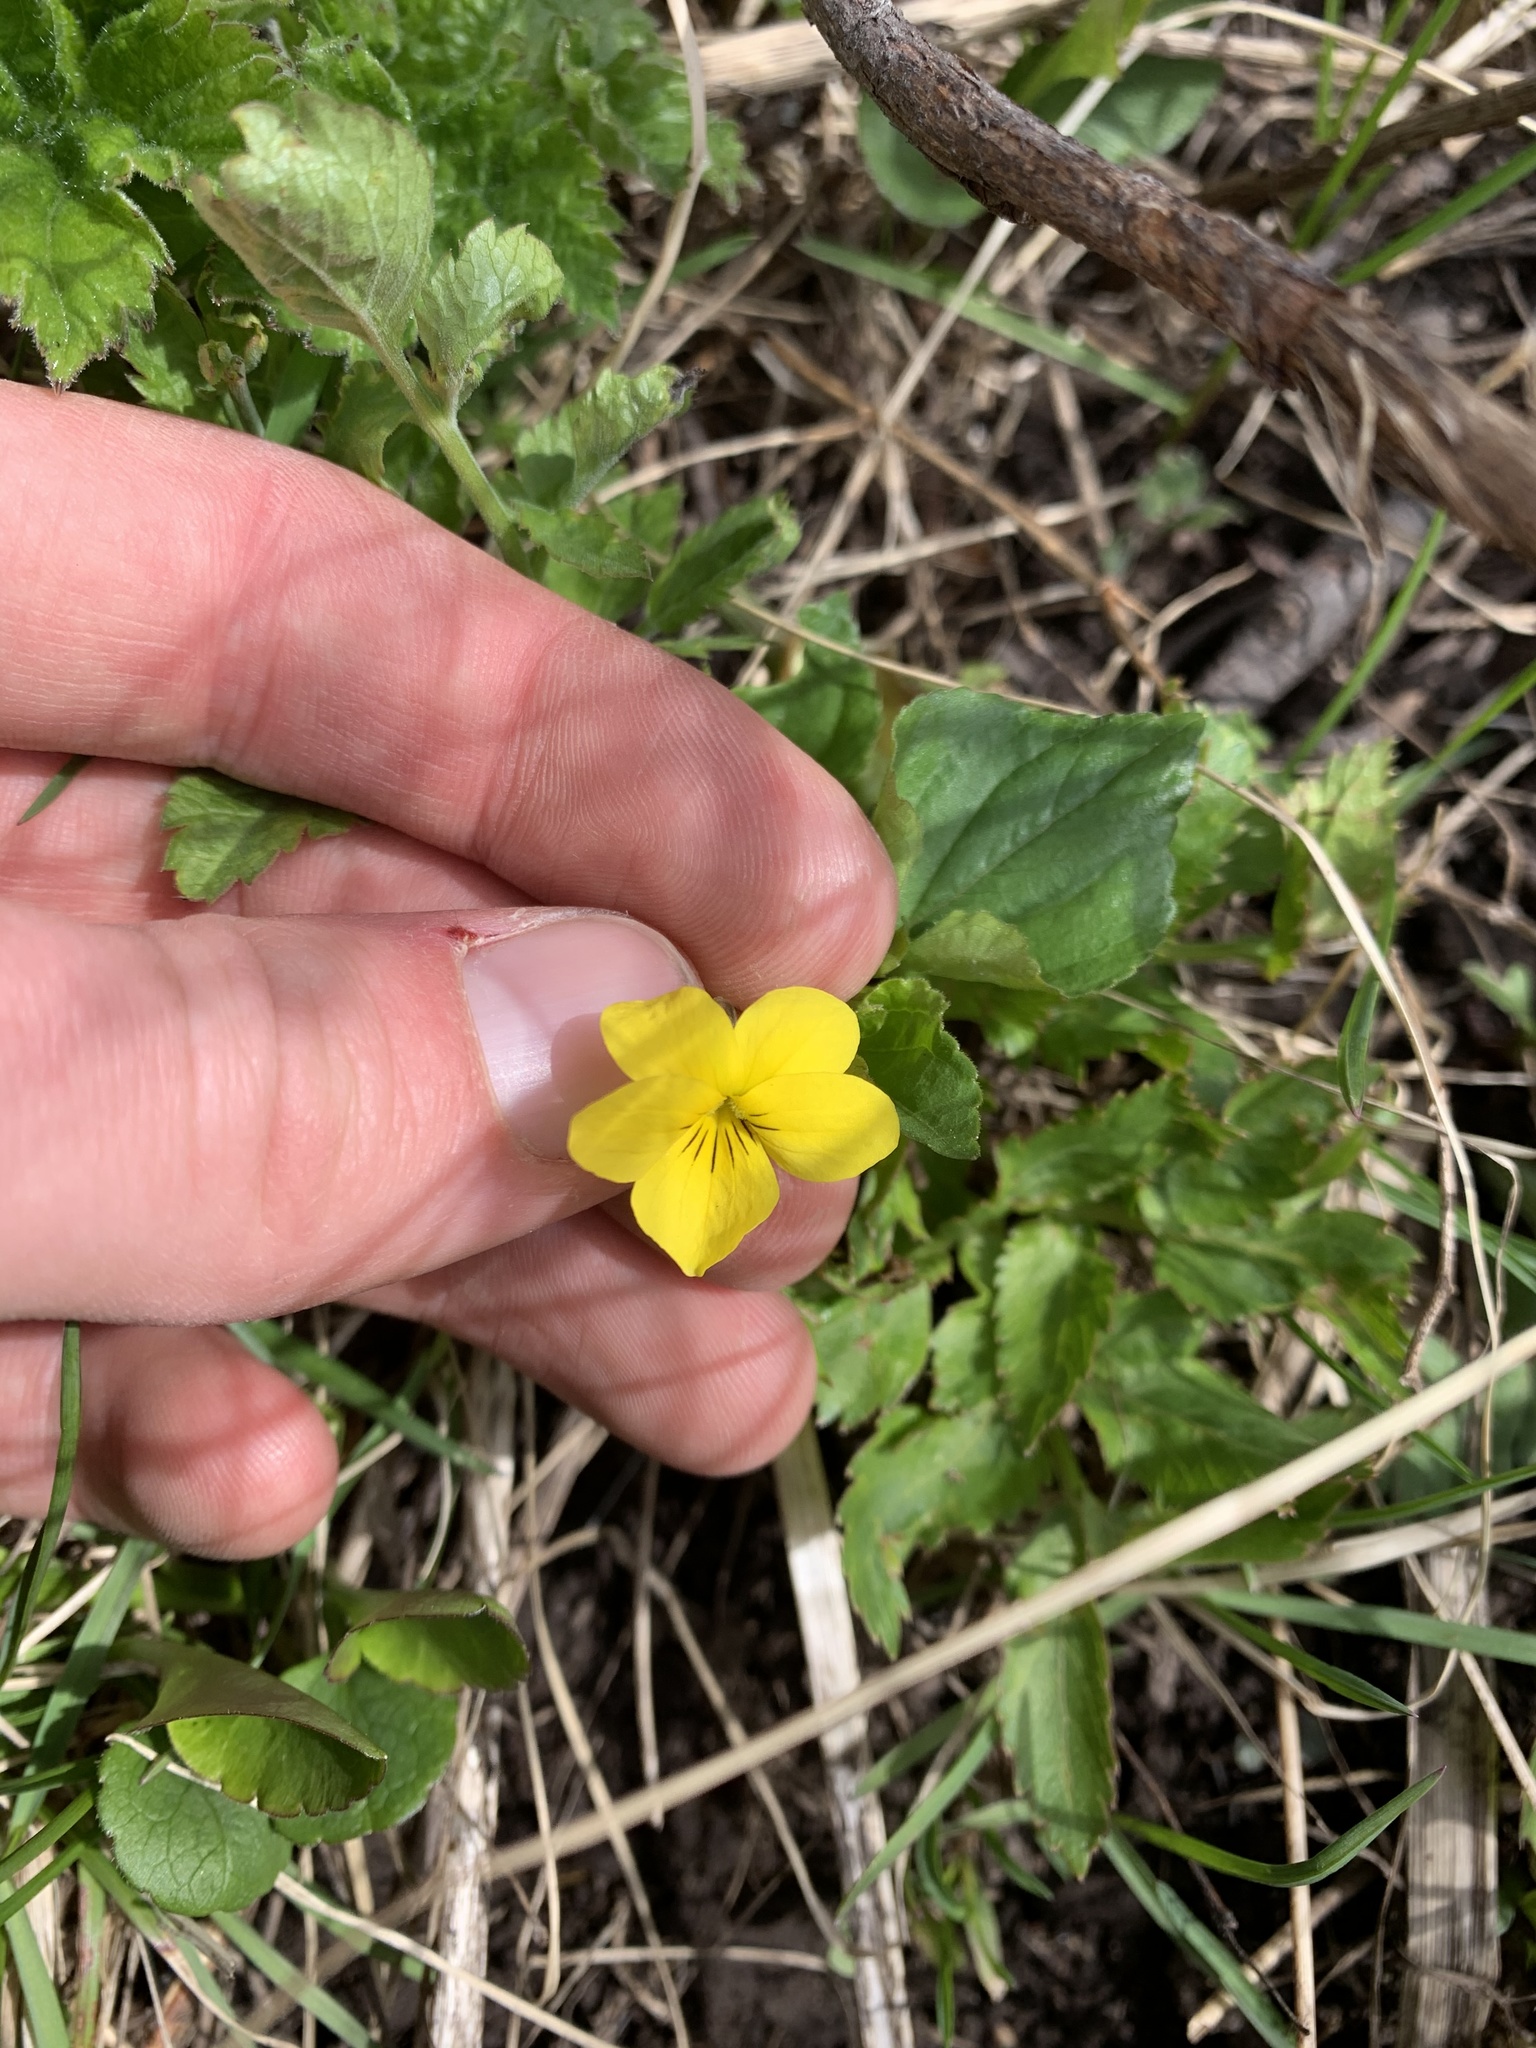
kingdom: Plantae
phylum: Tracheophyta
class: Magnoliopsida
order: Malpighiales
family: Violaceae
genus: Viola
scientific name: Viola glabella
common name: Stream violet
